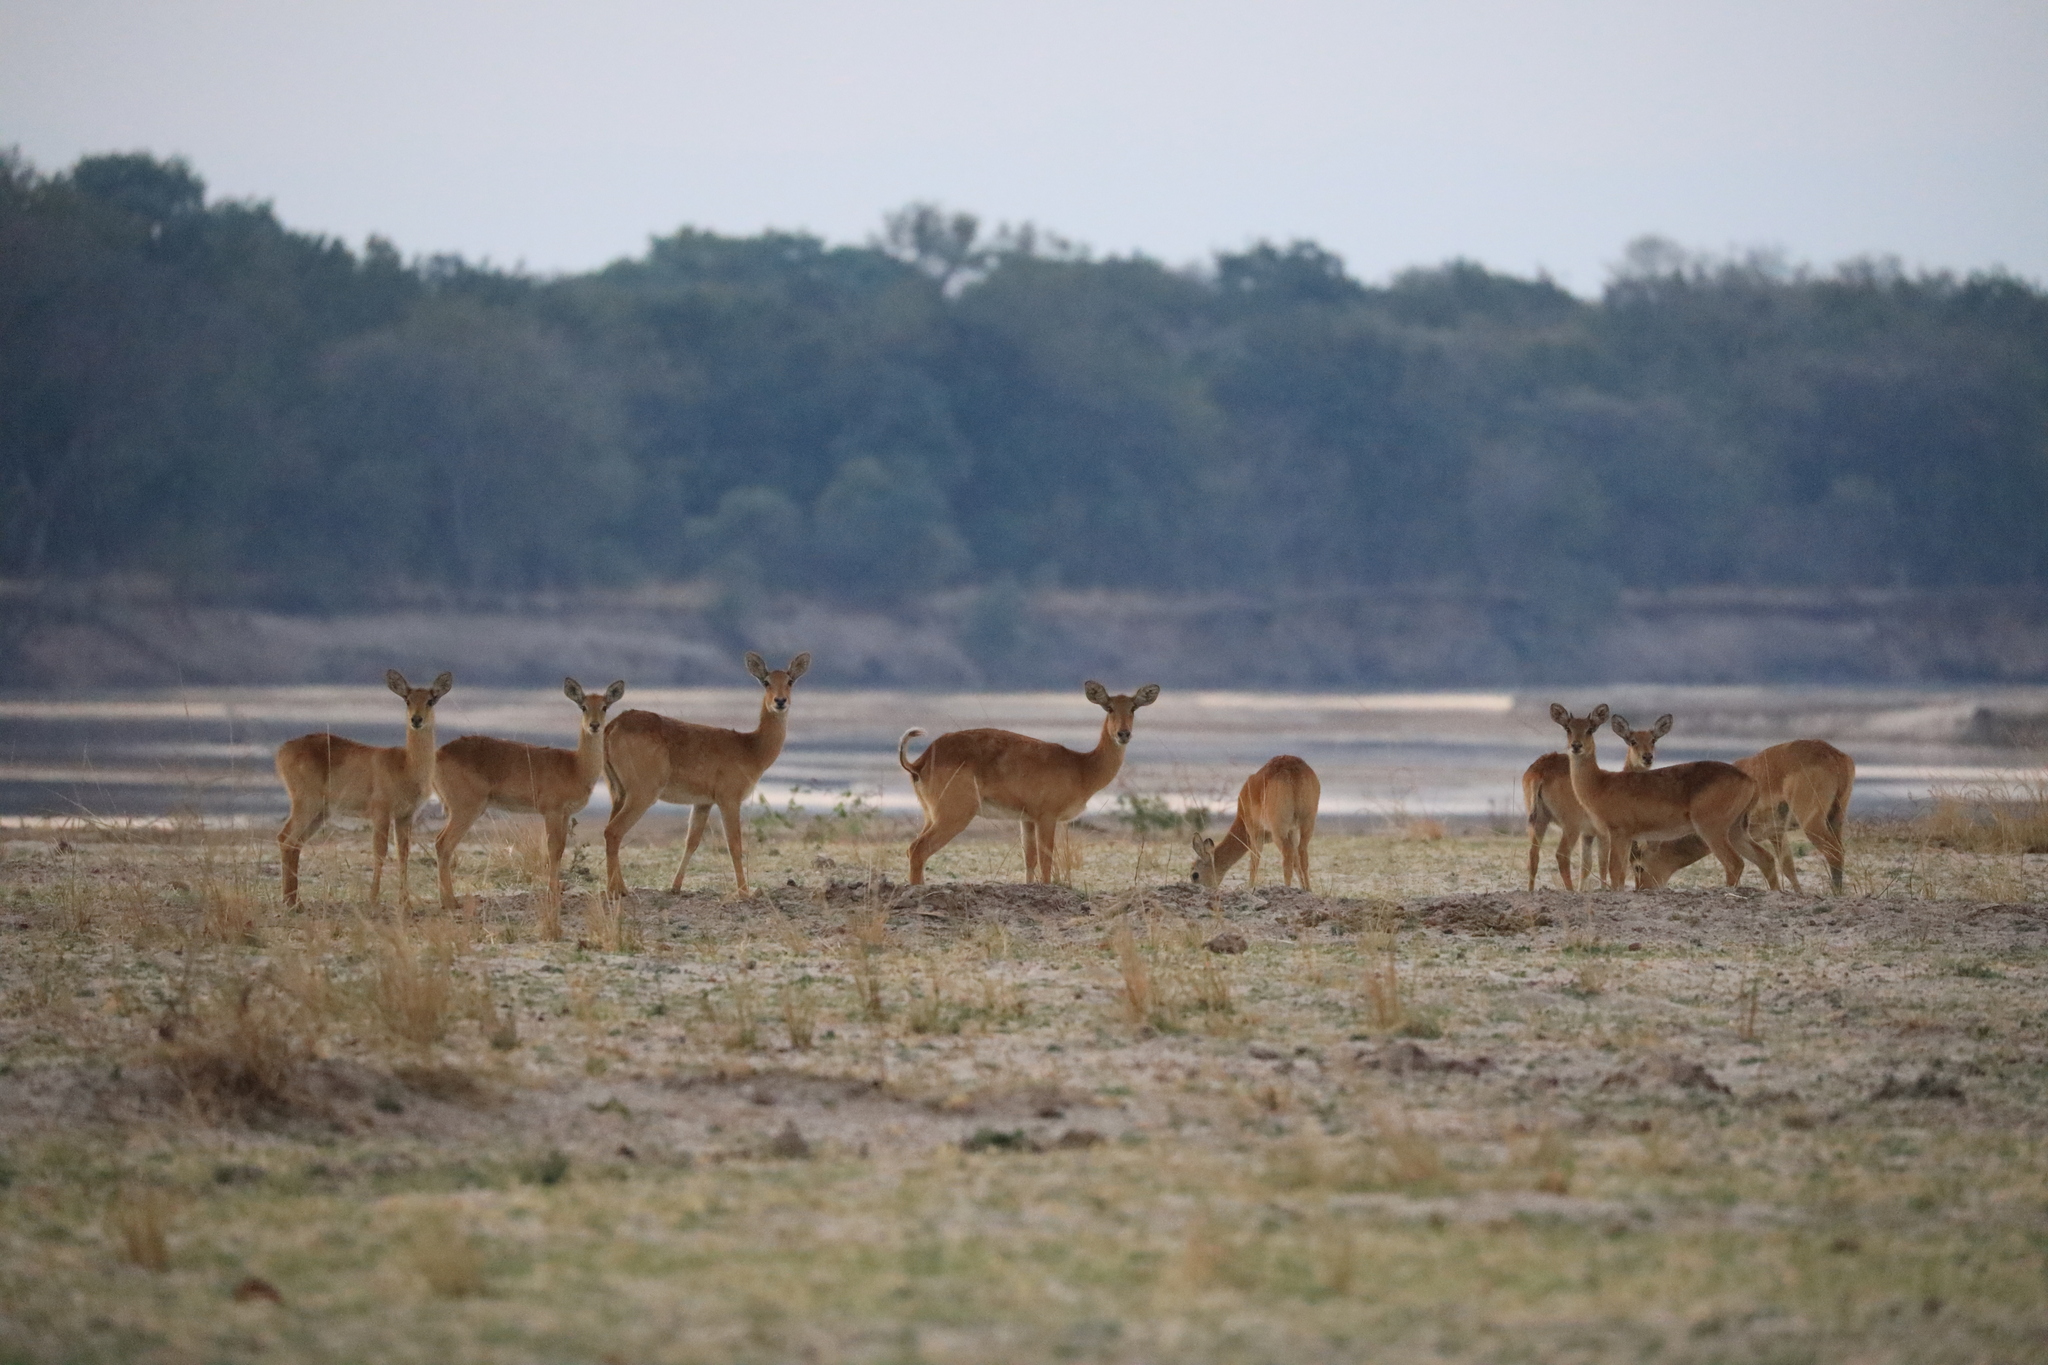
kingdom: Animalia
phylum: Chordata
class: Mammalia
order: Artiodactyla
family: Bovidae
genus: Kobus
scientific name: Kobus vardonii
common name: Puku
